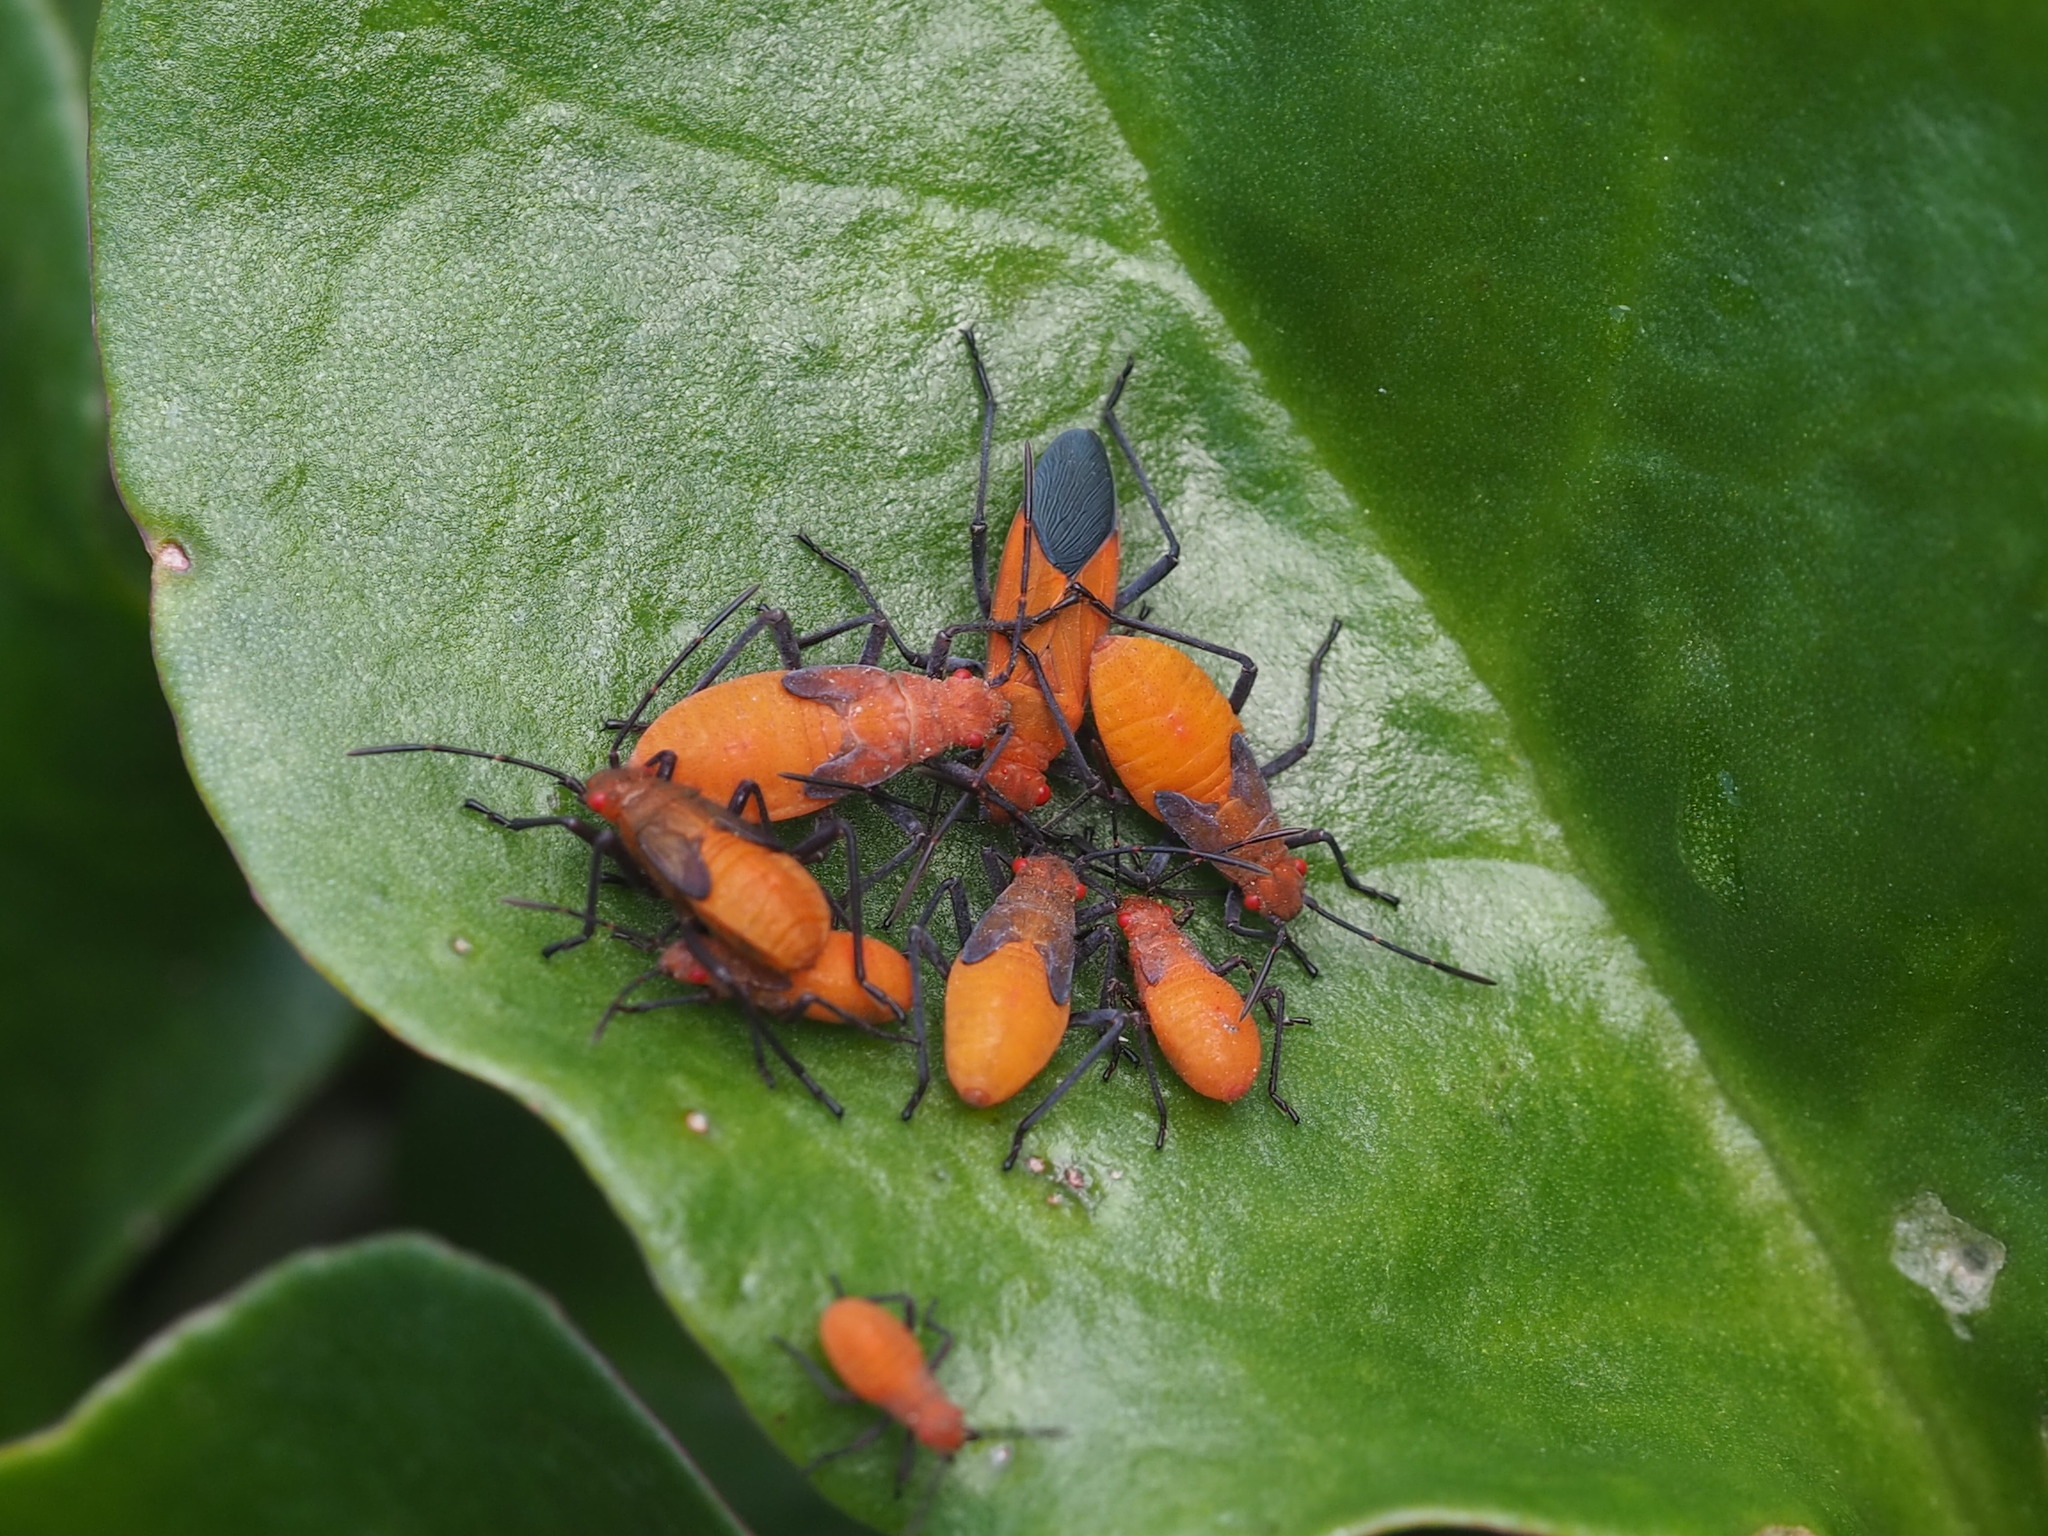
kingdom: Animalia
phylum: Arthropoda
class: Insecta
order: Hemiptera
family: Rhopalidae
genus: Leptocoris
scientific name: Leptocoris augur
